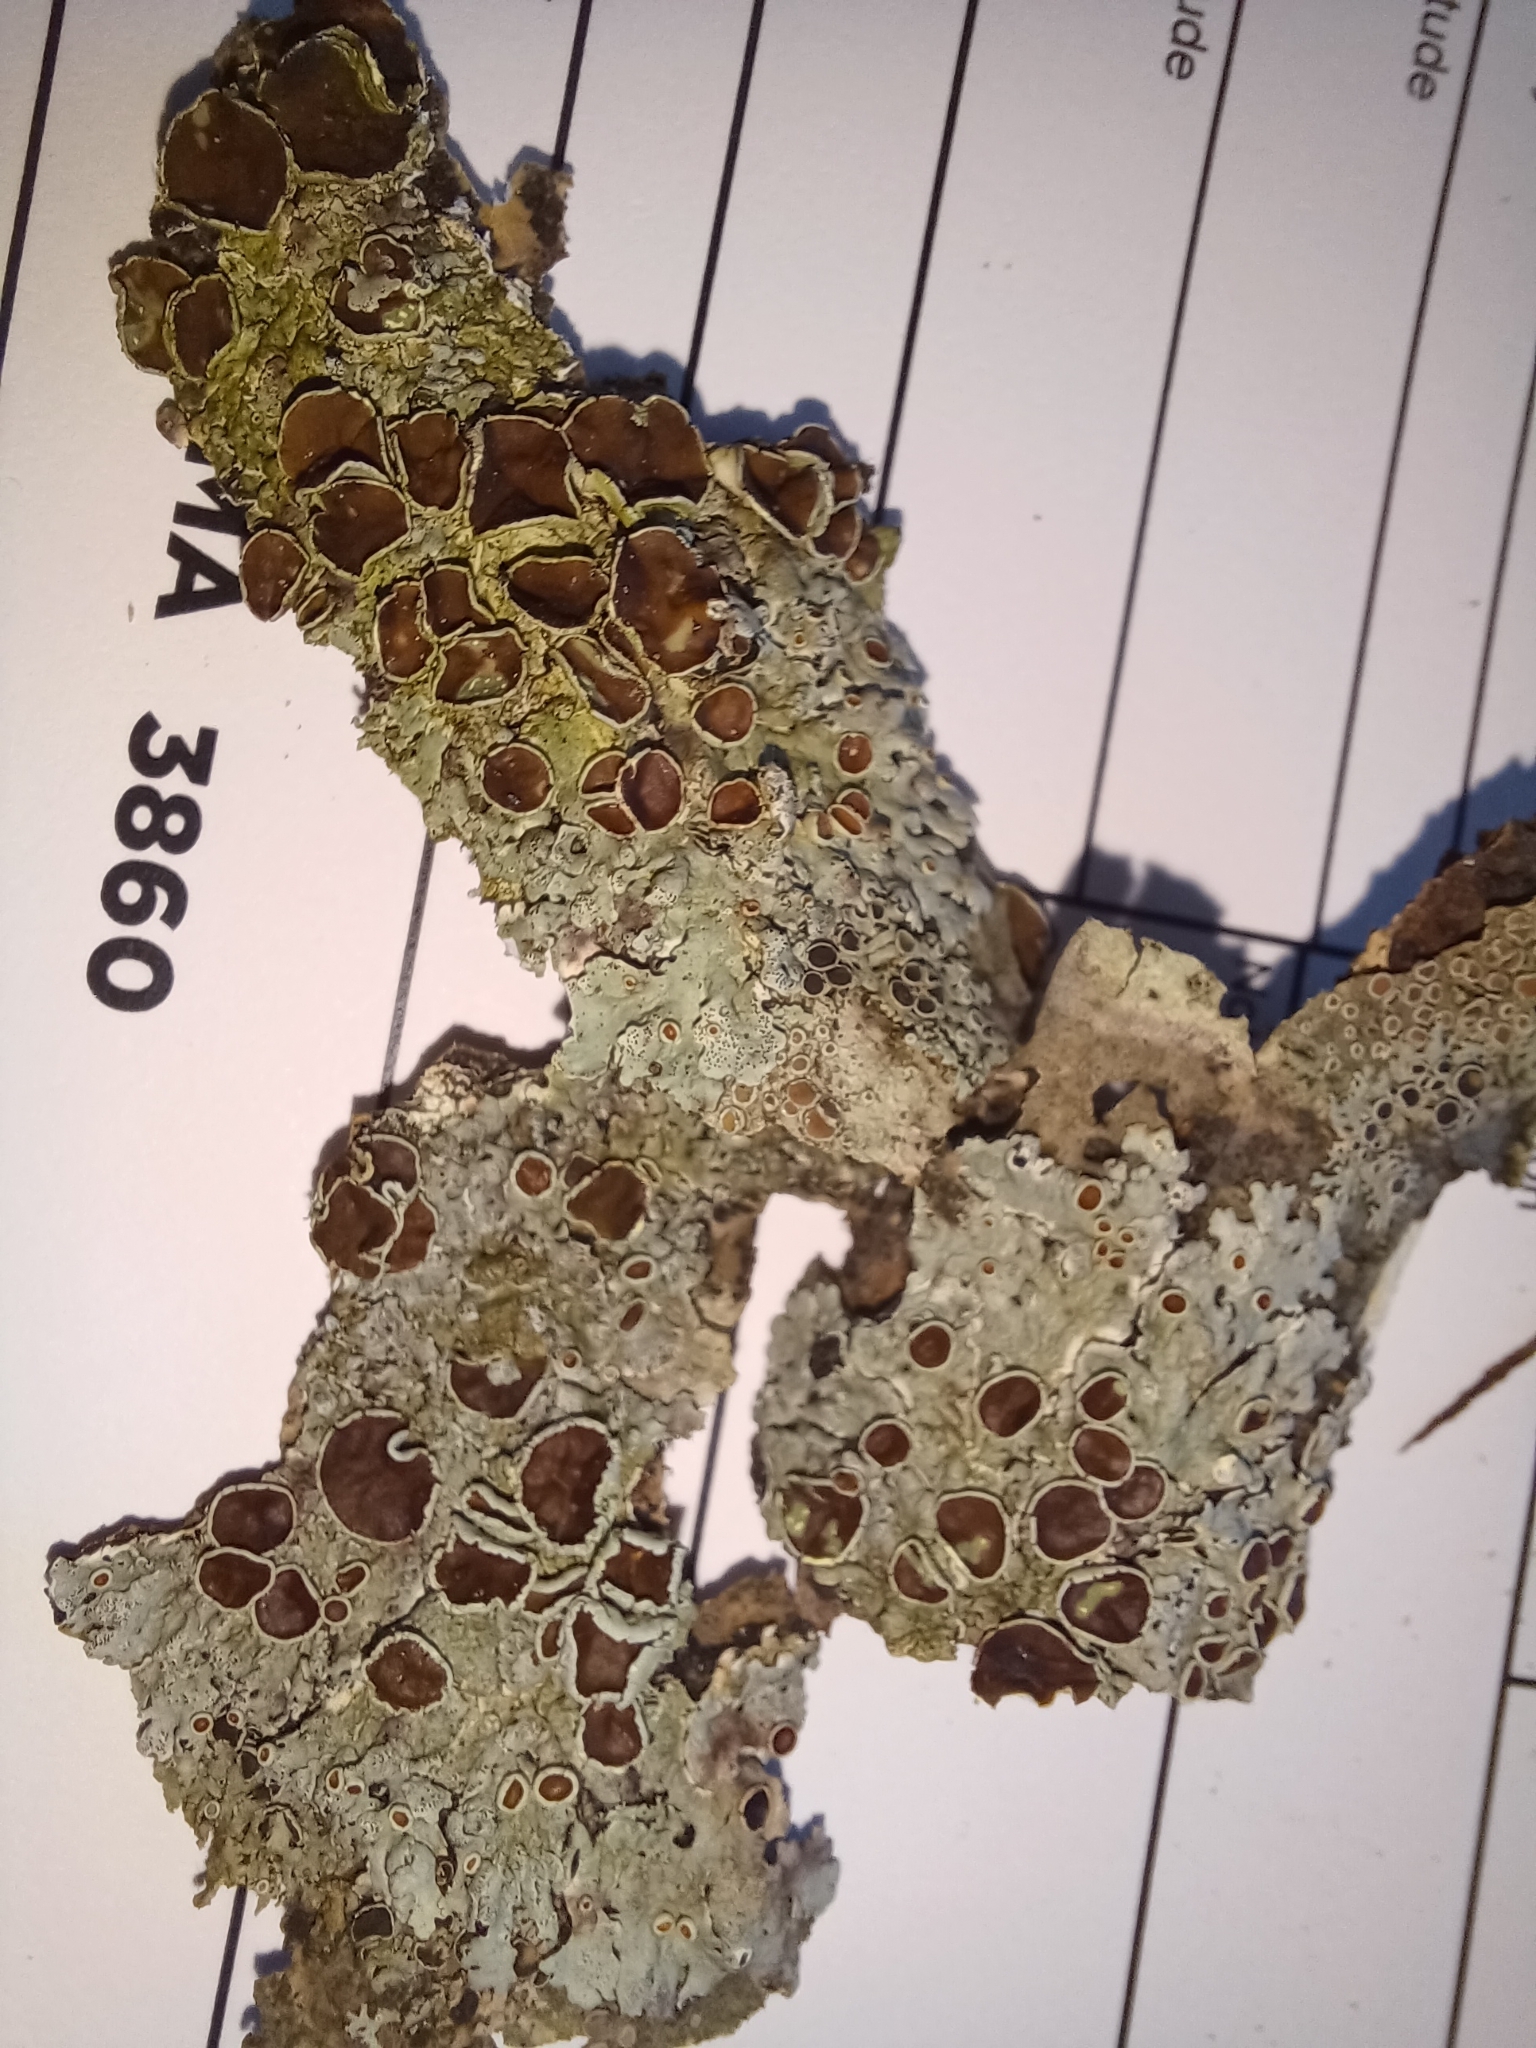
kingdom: Fungi
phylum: Ascomycota
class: Lecanoromycetes
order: Lecanorales
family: Parmeliaceae
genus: Hypotrachyna
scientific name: Hypotrachyna livida
